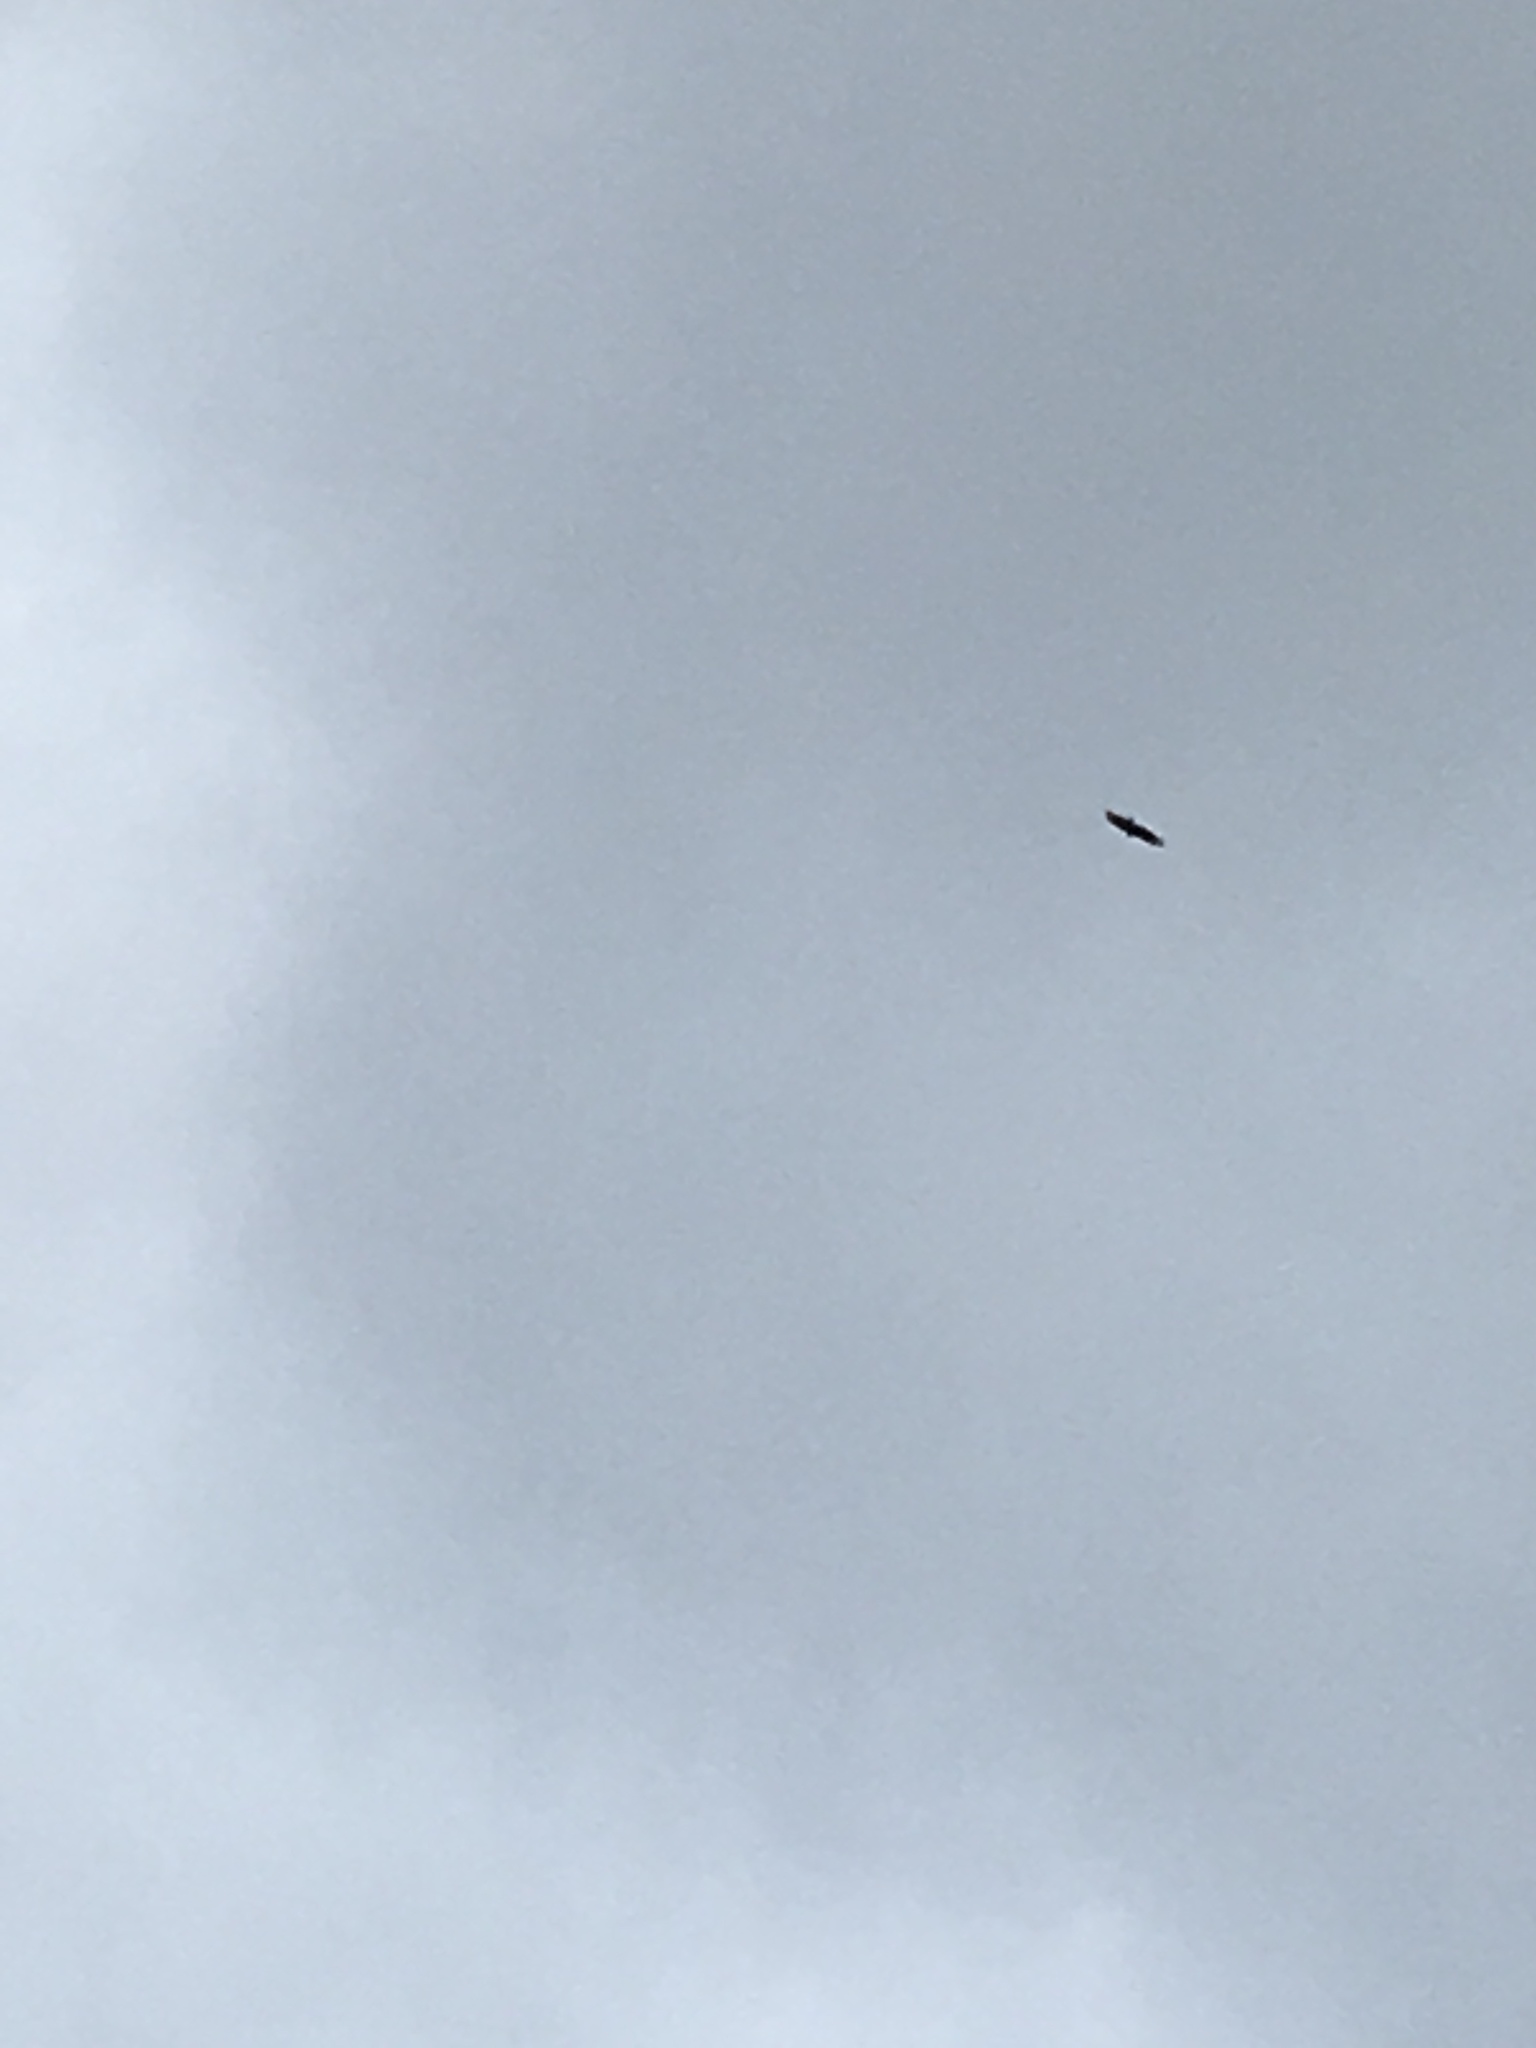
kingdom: Animalia
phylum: Chordata
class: Aves
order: Accipitriformes
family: Cathartidae
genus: Cathartes
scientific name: Cathartes aura
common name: Turkey vulture
